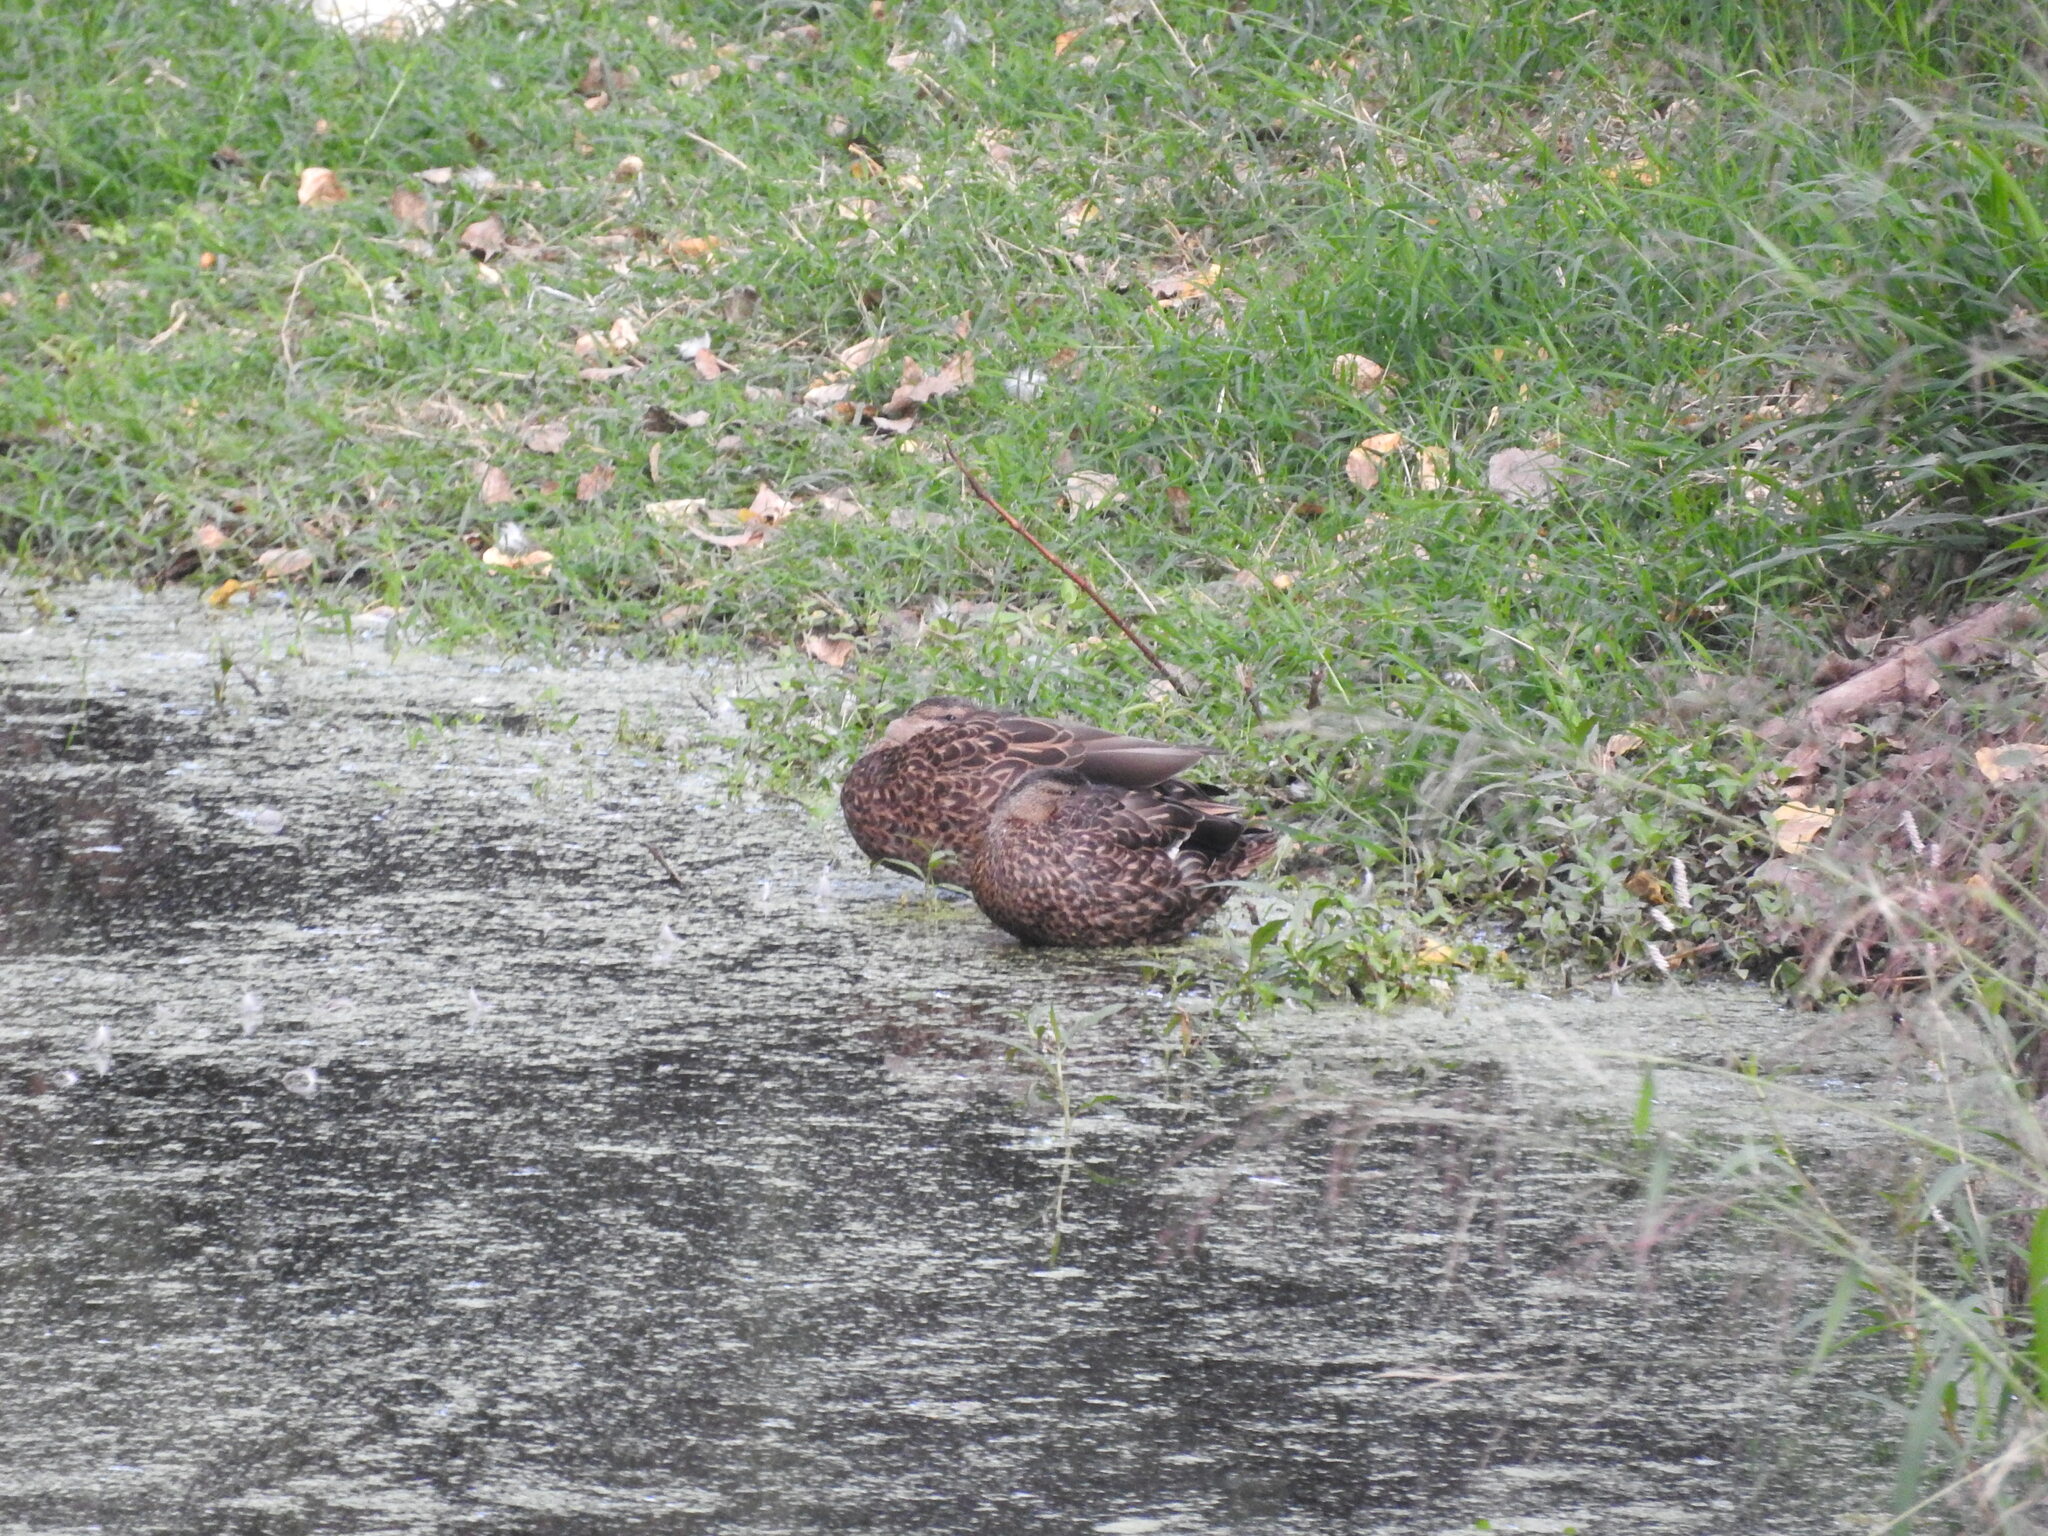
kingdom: Animalia
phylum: Chordata
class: Aves
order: Anseriformes
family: Anatidae
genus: Anas
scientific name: Anas diazi
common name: Mexican duck
